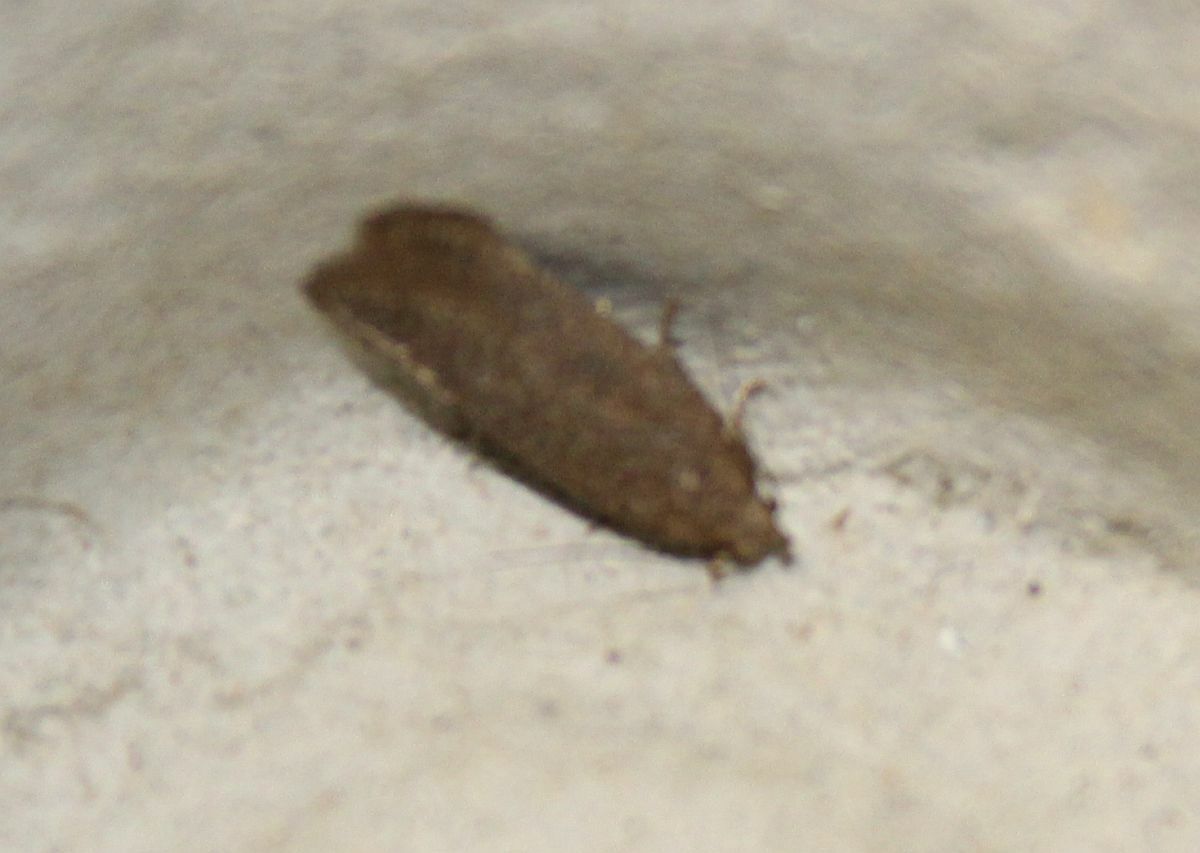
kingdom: Animalia
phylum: Arthropoda
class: Insecta
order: Lepidoptera
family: Gelechiidae
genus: Bryotropha
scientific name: Bryotropha terrella
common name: Cinerous groundling
